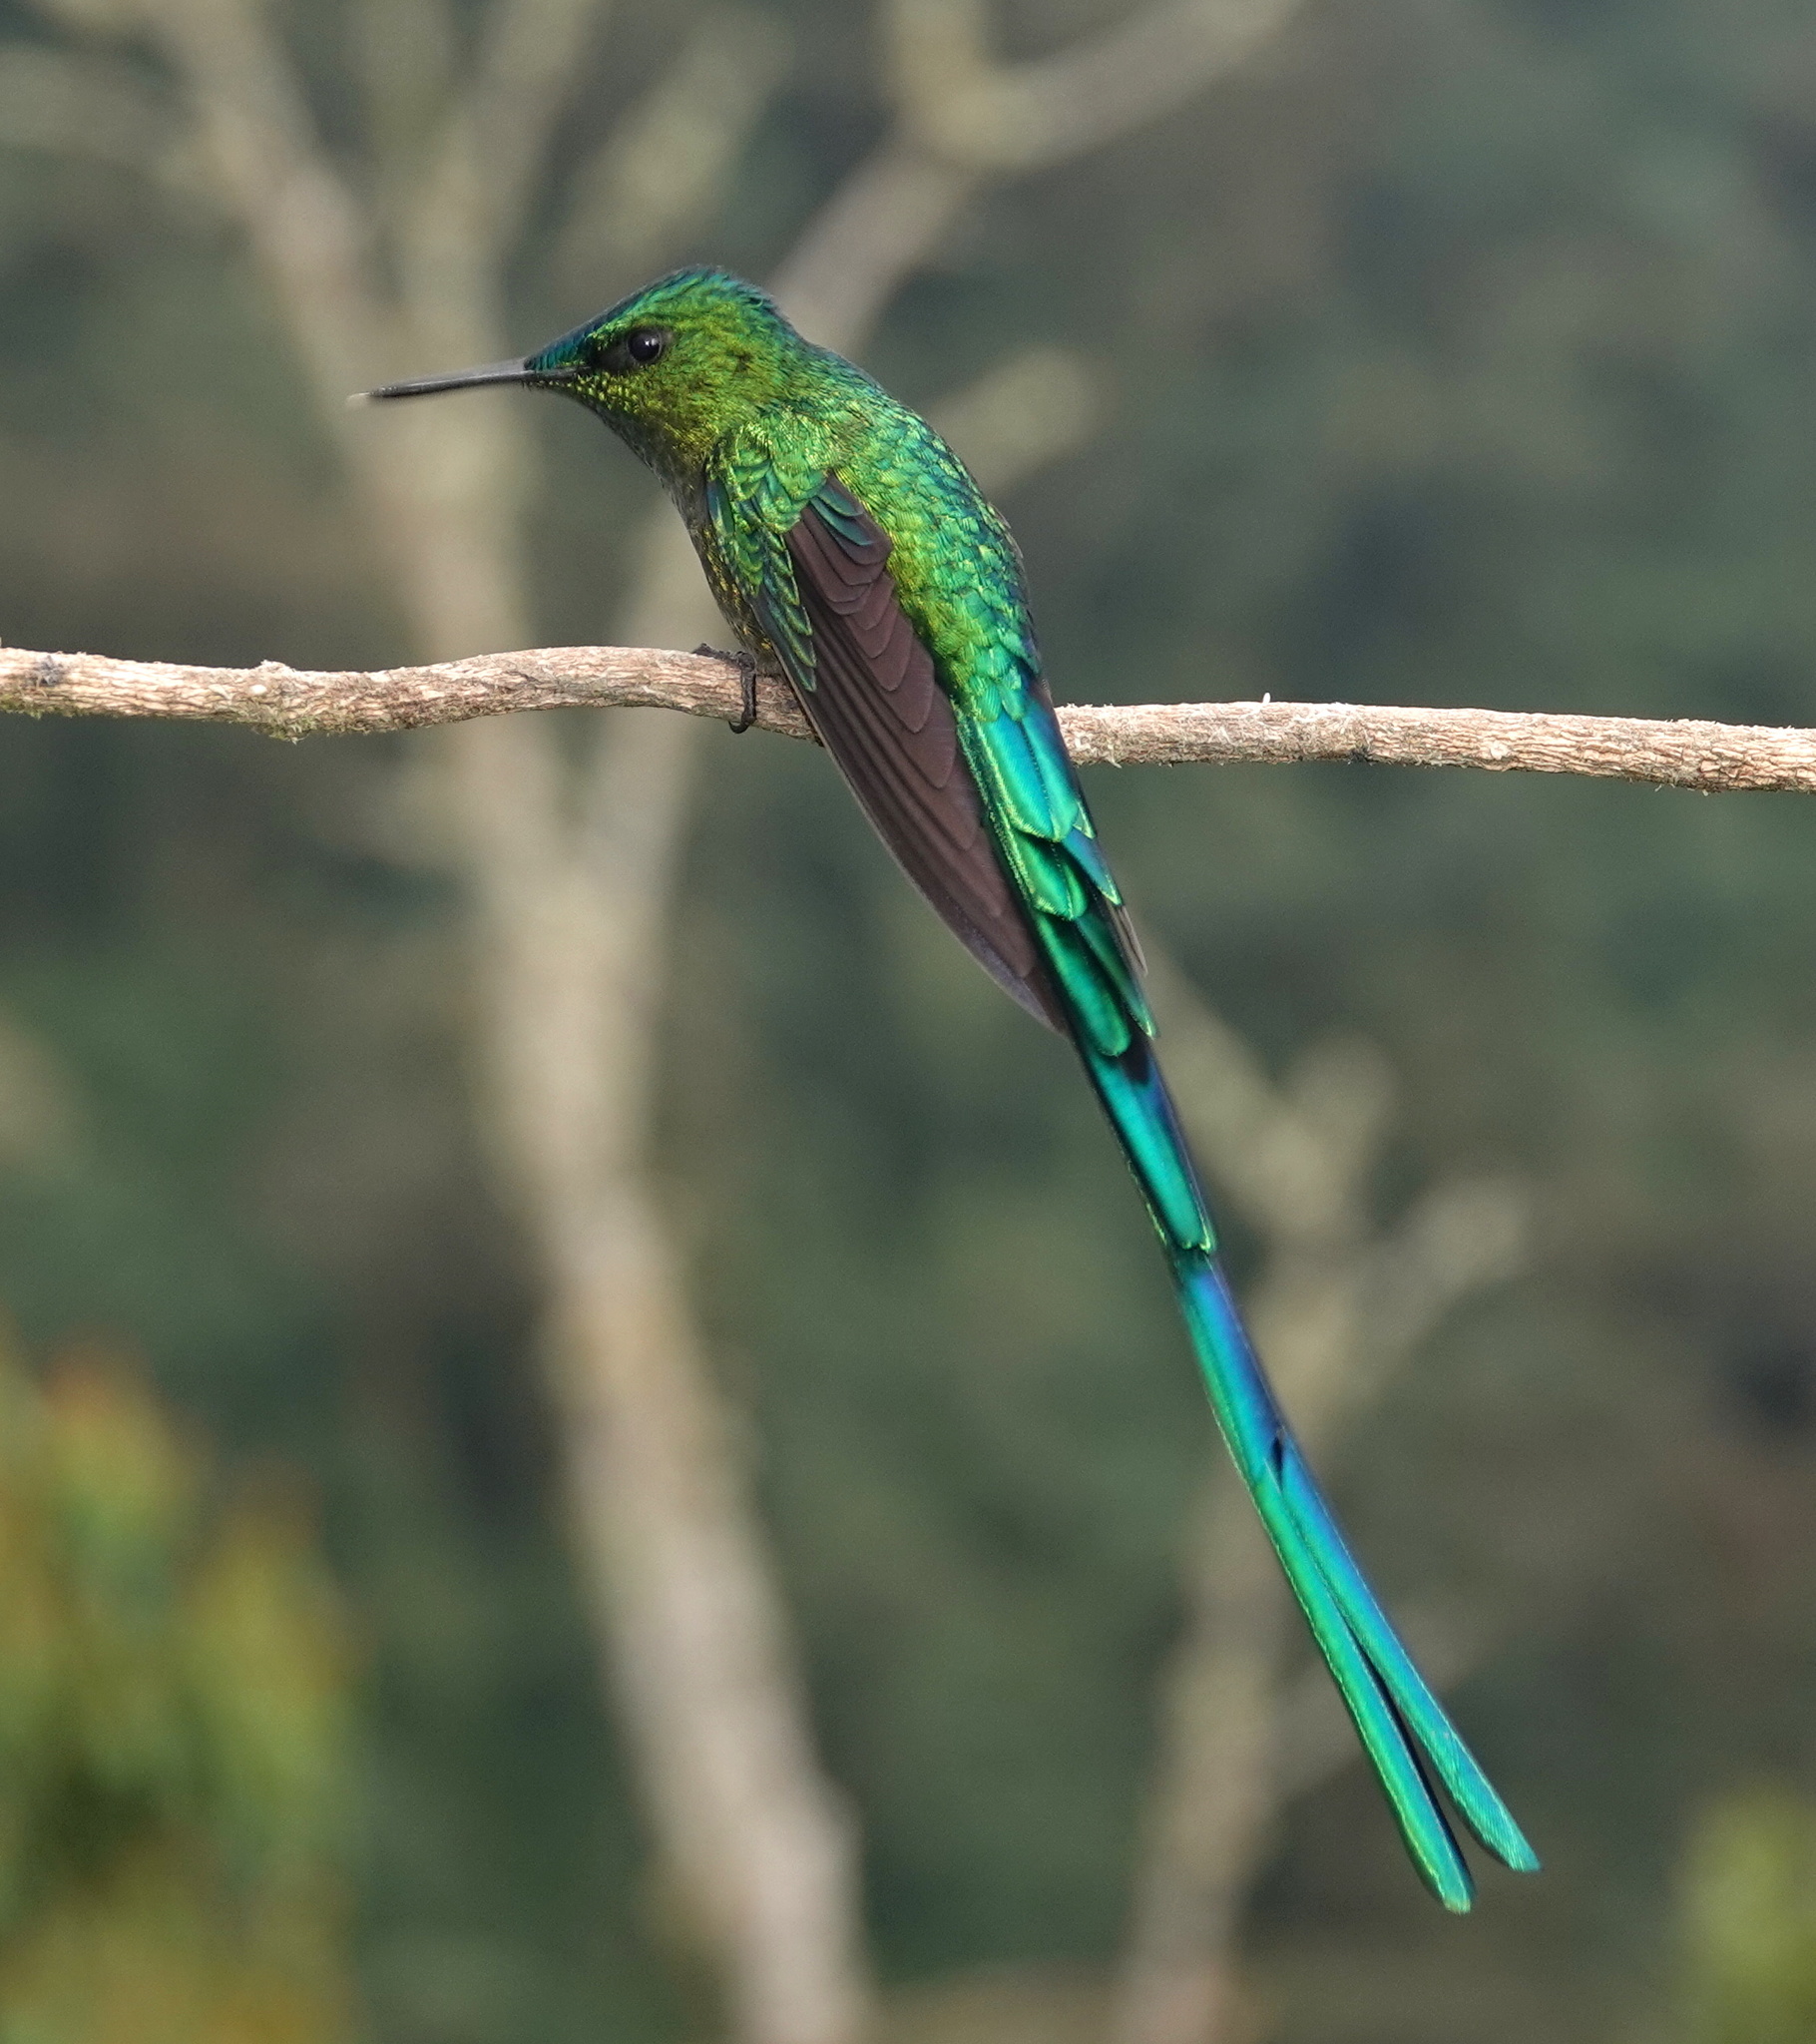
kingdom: Animalia
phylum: Chordata
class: Aves
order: Apodiformes
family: Trochilidae
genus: Aglaiocercus
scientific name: Aglaiocercus kingii
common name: Long-tailed sylph
